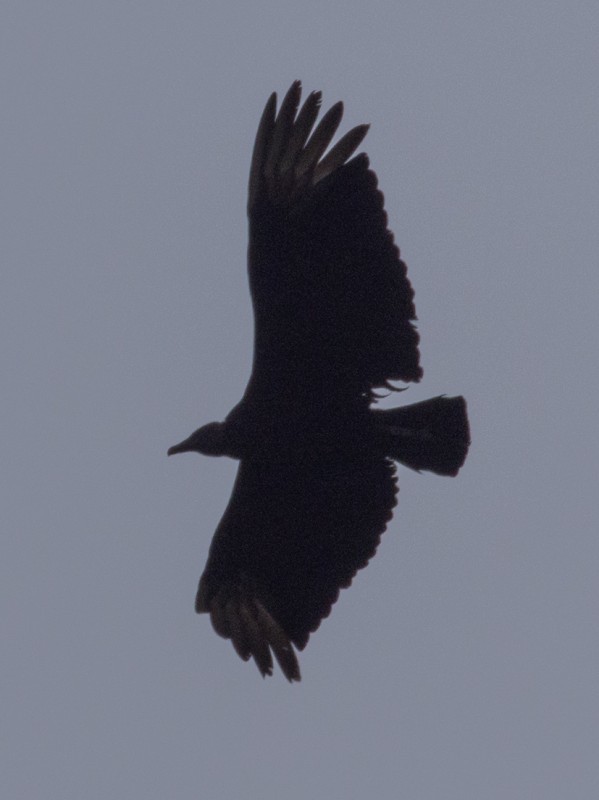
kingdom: Animalia
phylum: Chordata
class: Aves
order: Accipitriformes
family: Cathartidae
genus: Coragyps
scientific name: Coragyps atratus
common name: Black vulture
